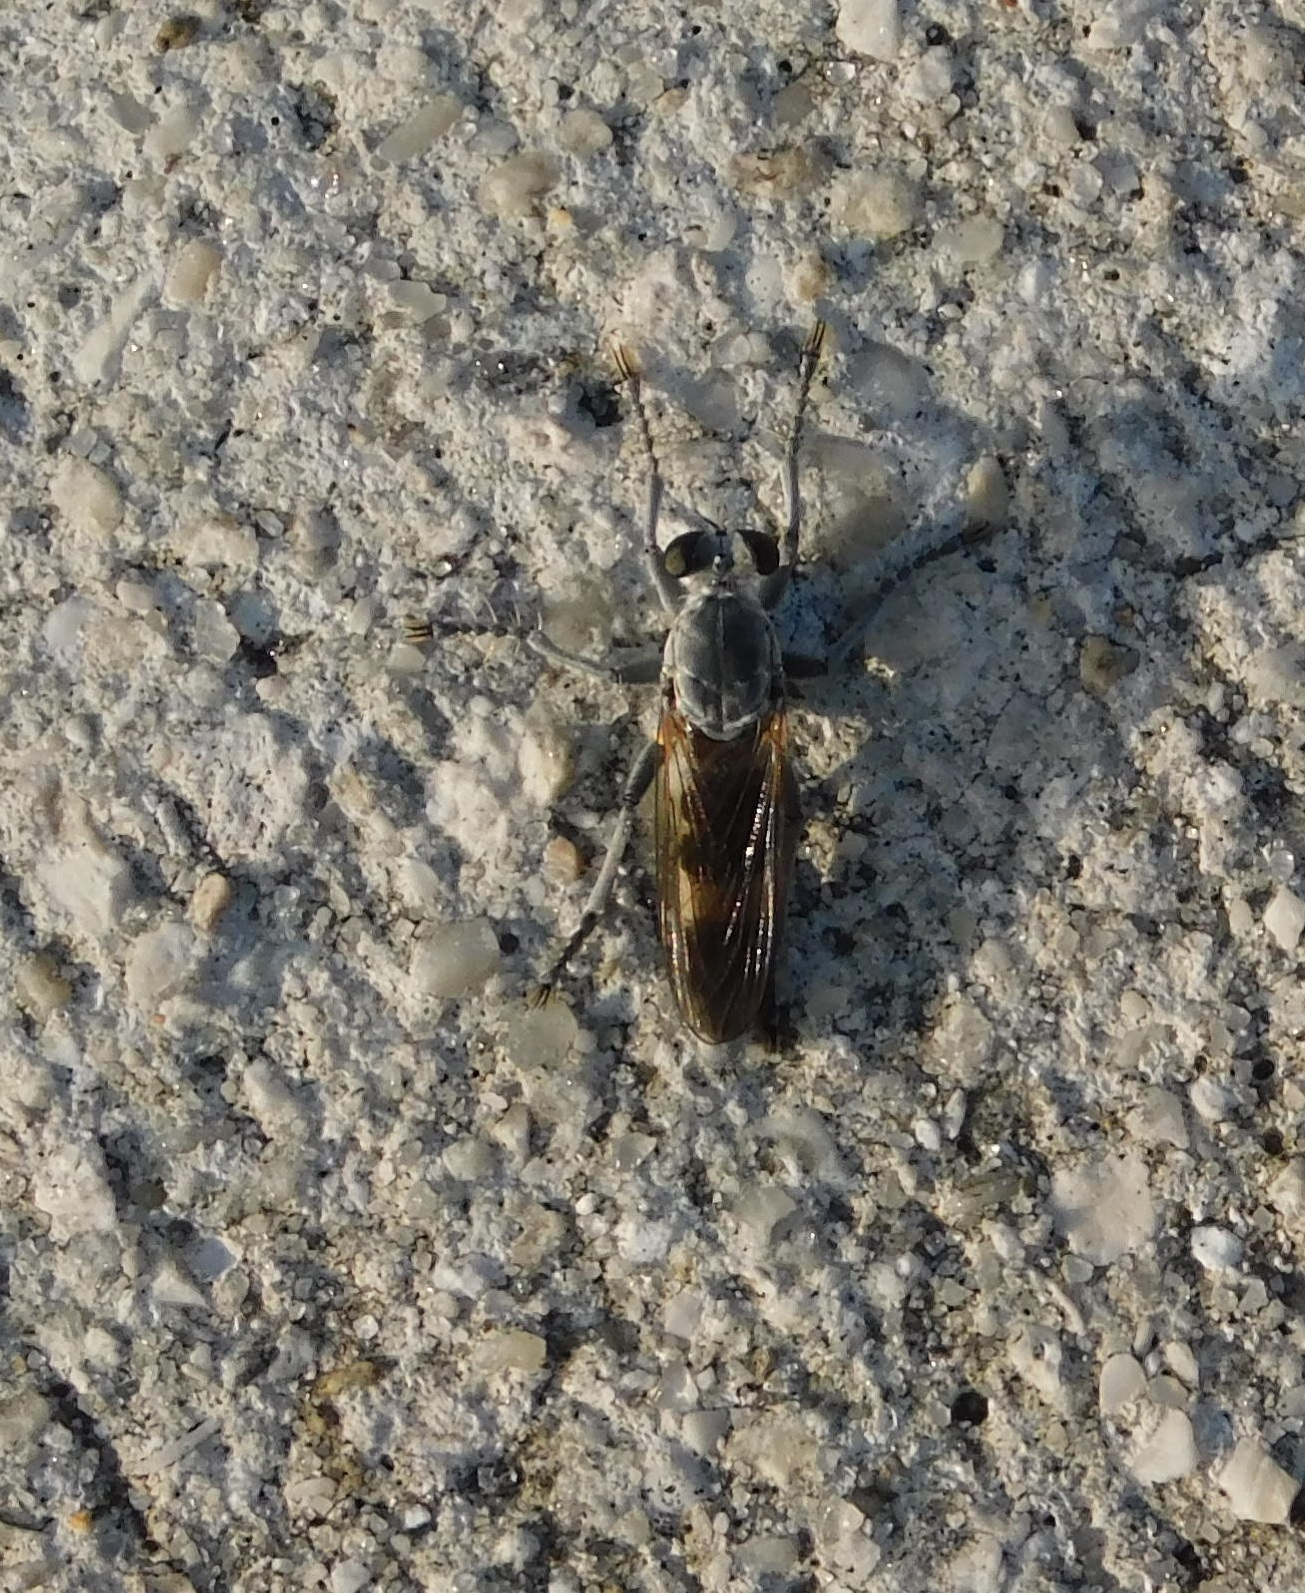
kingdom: Animalia
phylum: Arthropoda
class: Insecta
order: Diptera
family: Asilidae
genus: Stichopogon
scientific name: Stichopogon trifasciatus
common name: Three-banded robber fly
